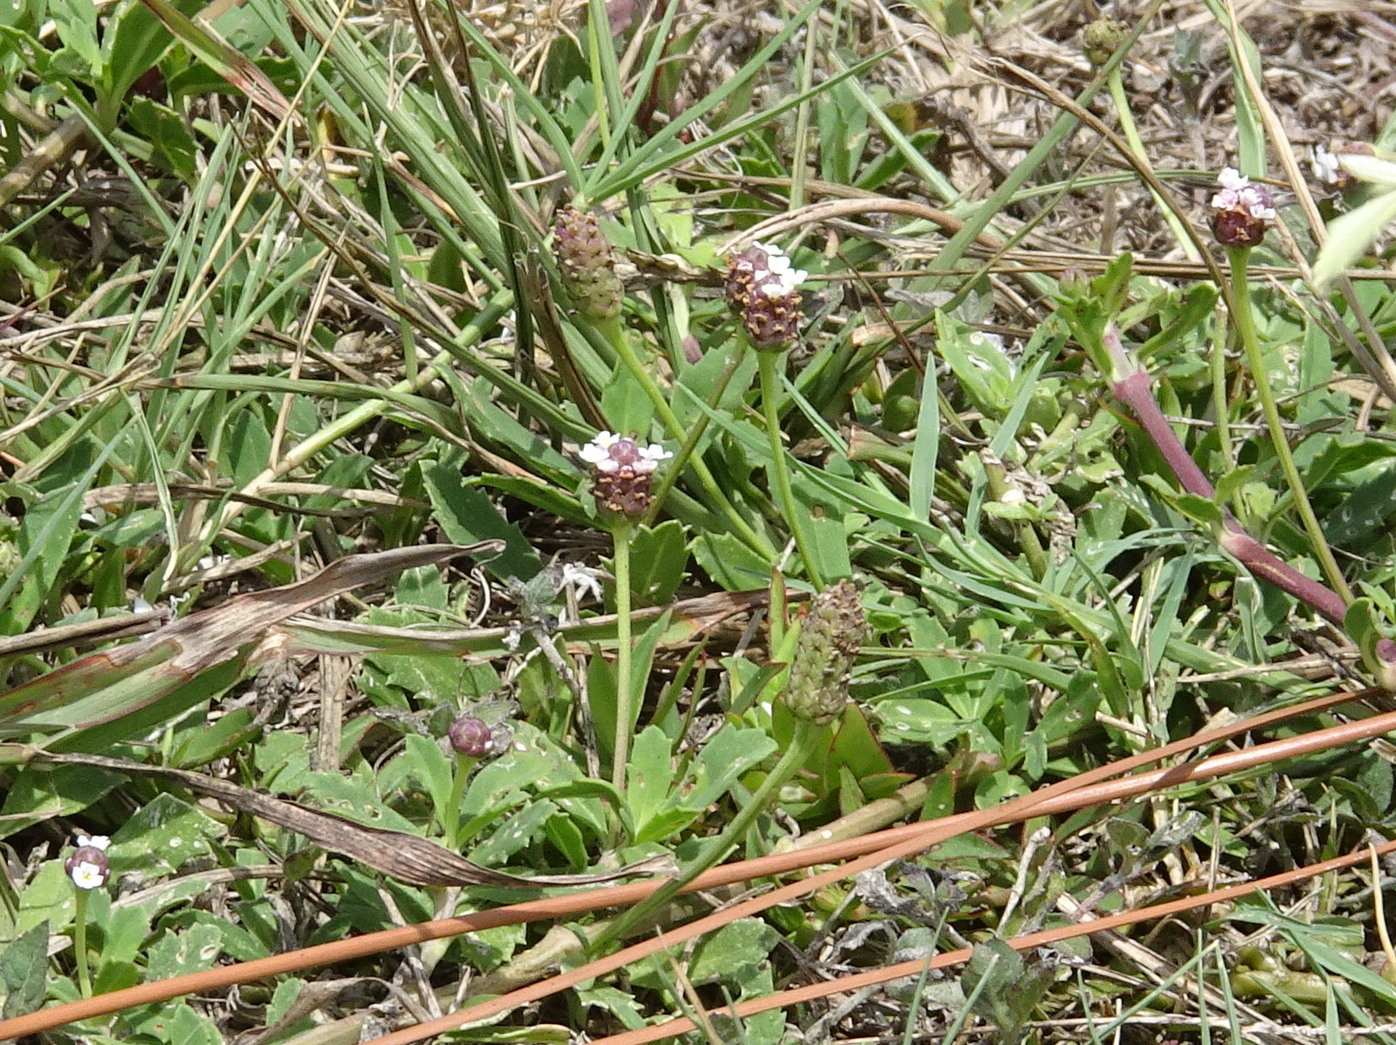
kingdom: Plantae
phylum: Tracheophyta
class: Magnoliopsida
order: Lamiales
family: Verbenaceae
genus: Phyla
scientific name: Phyla nodiflora
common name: Frogfruit
